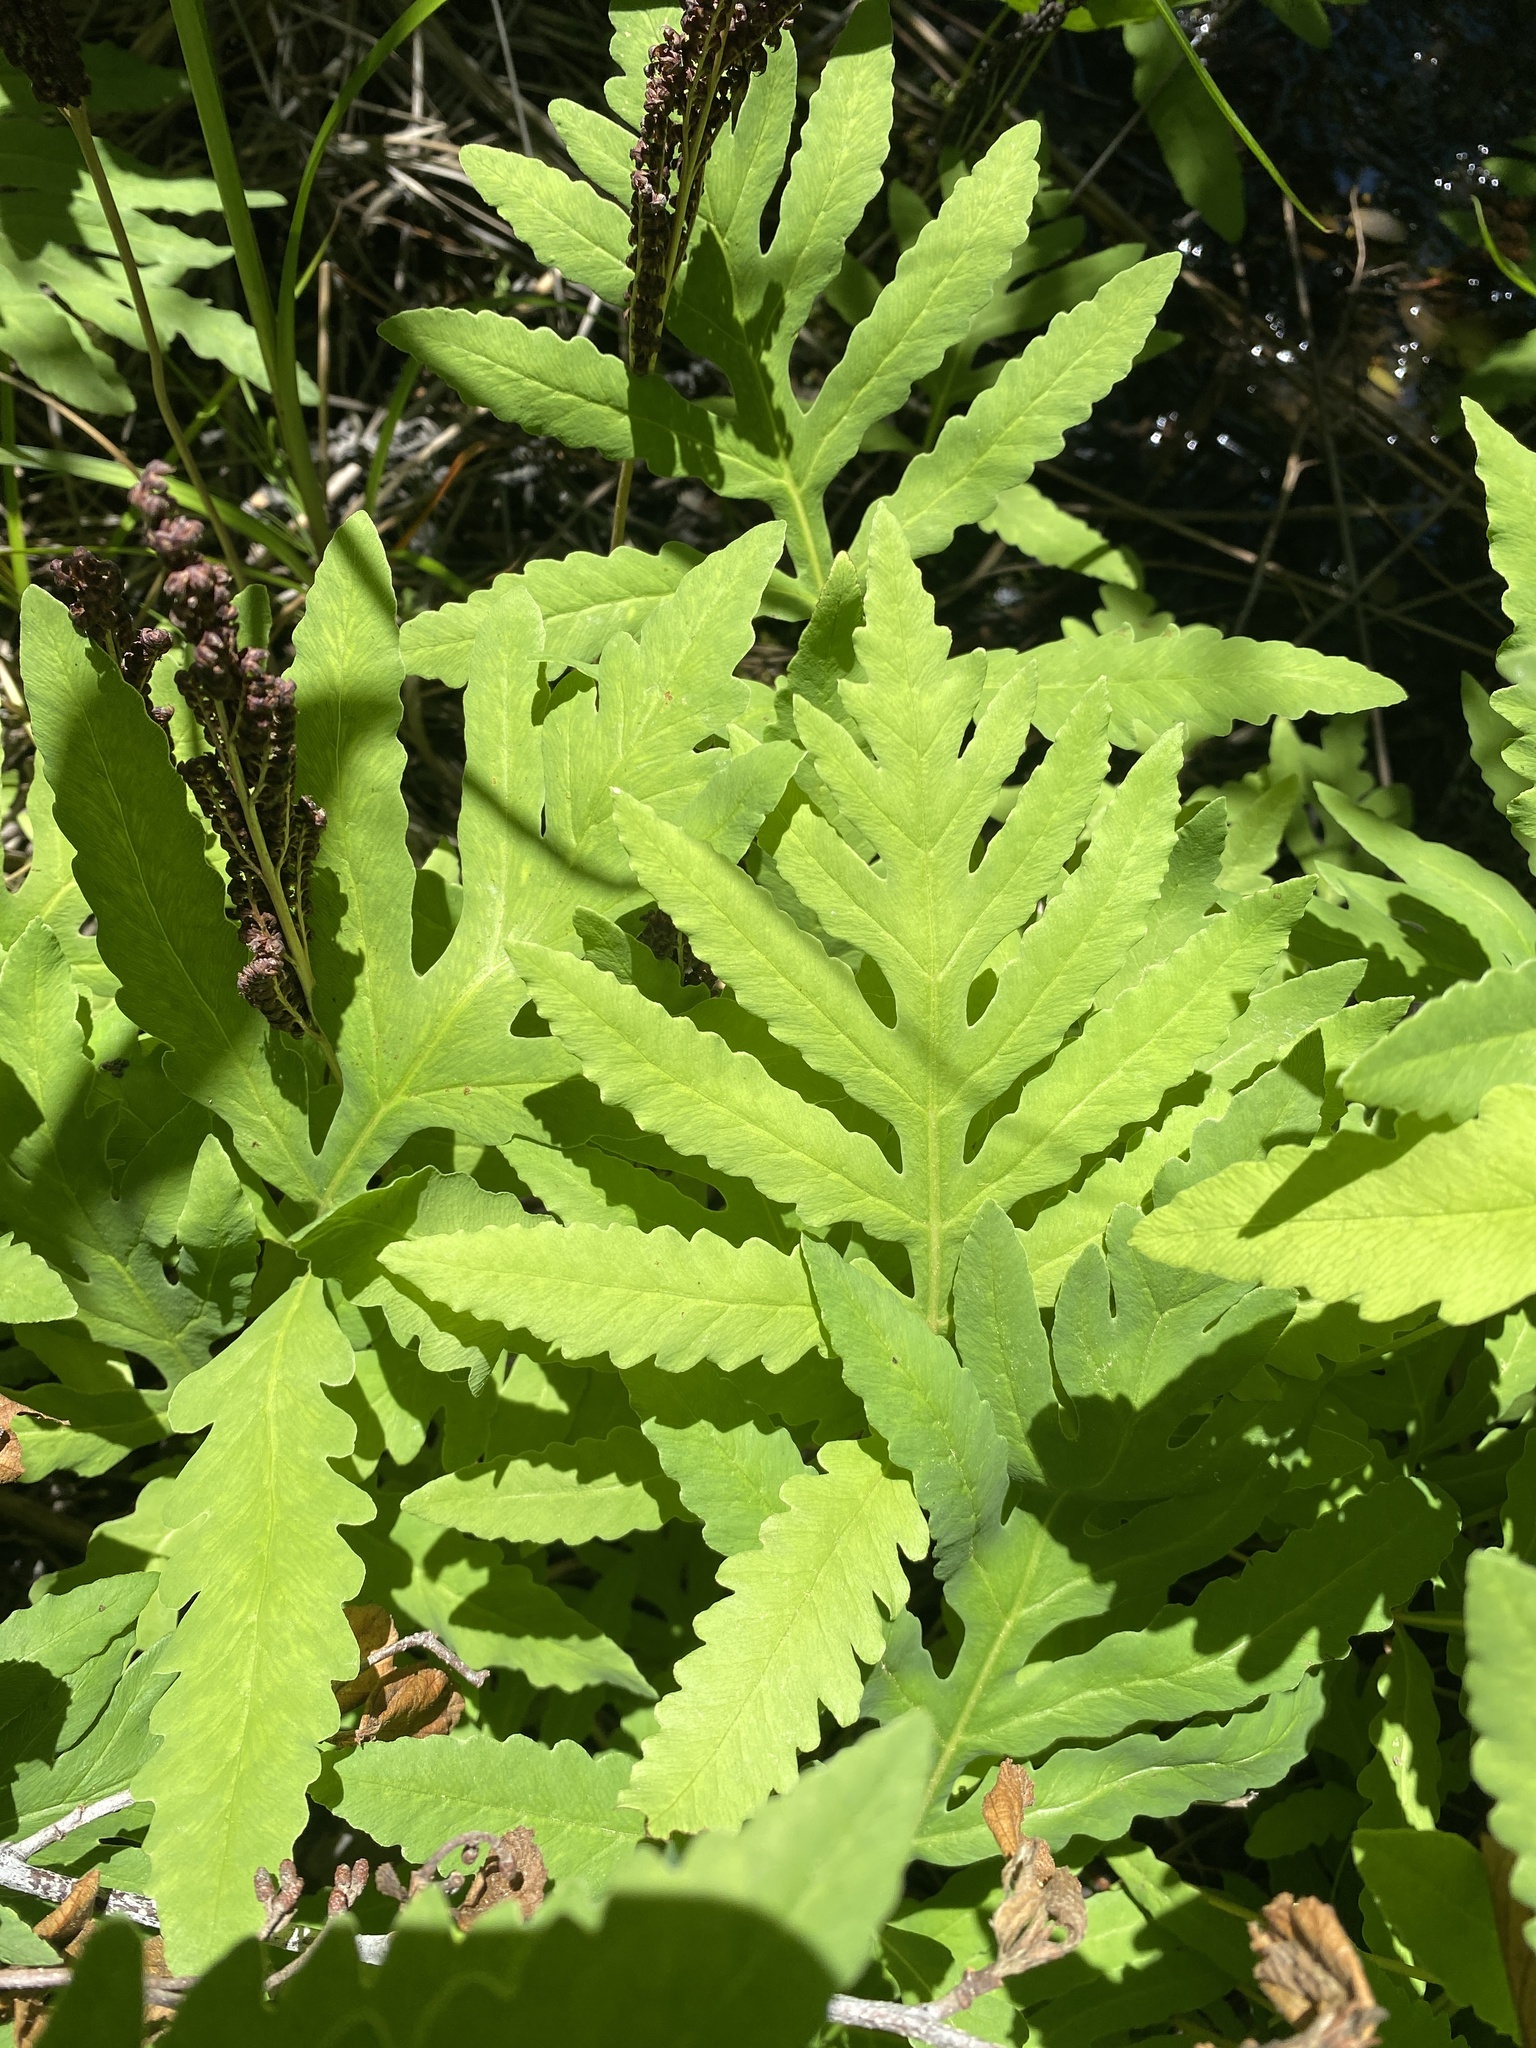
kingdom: Plantae
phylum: Tracheophyta
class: Polypodiopsida
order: Polypodiales
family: Onocleaceae
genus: Onoclea
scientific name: Onoclea sensibilis
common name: Sensitive fern
